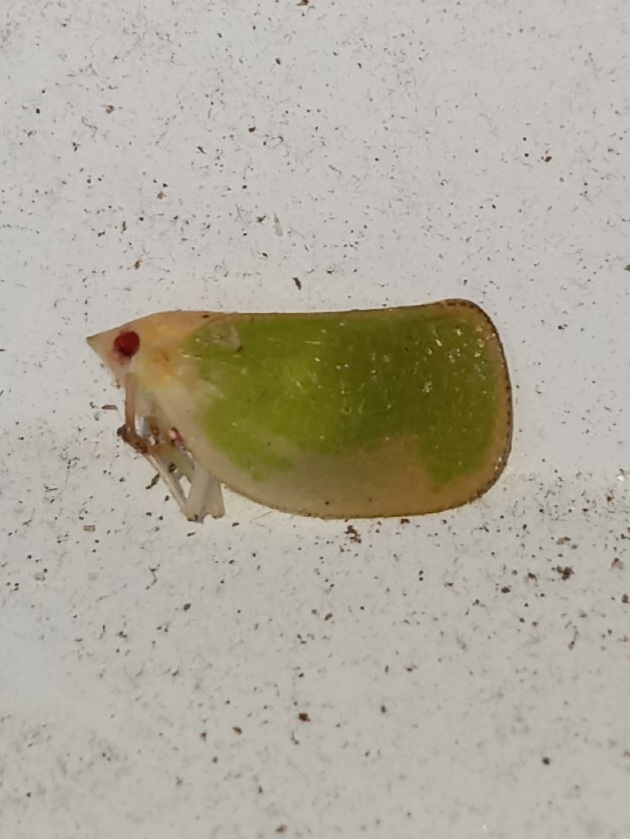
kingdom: Animalia
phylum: Arthropoda
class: Insecta
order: Hemiptera
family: Acanaloniidae
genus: Acanalonia
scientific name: Acanalonia conica
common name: Green cone-headed planthopper
